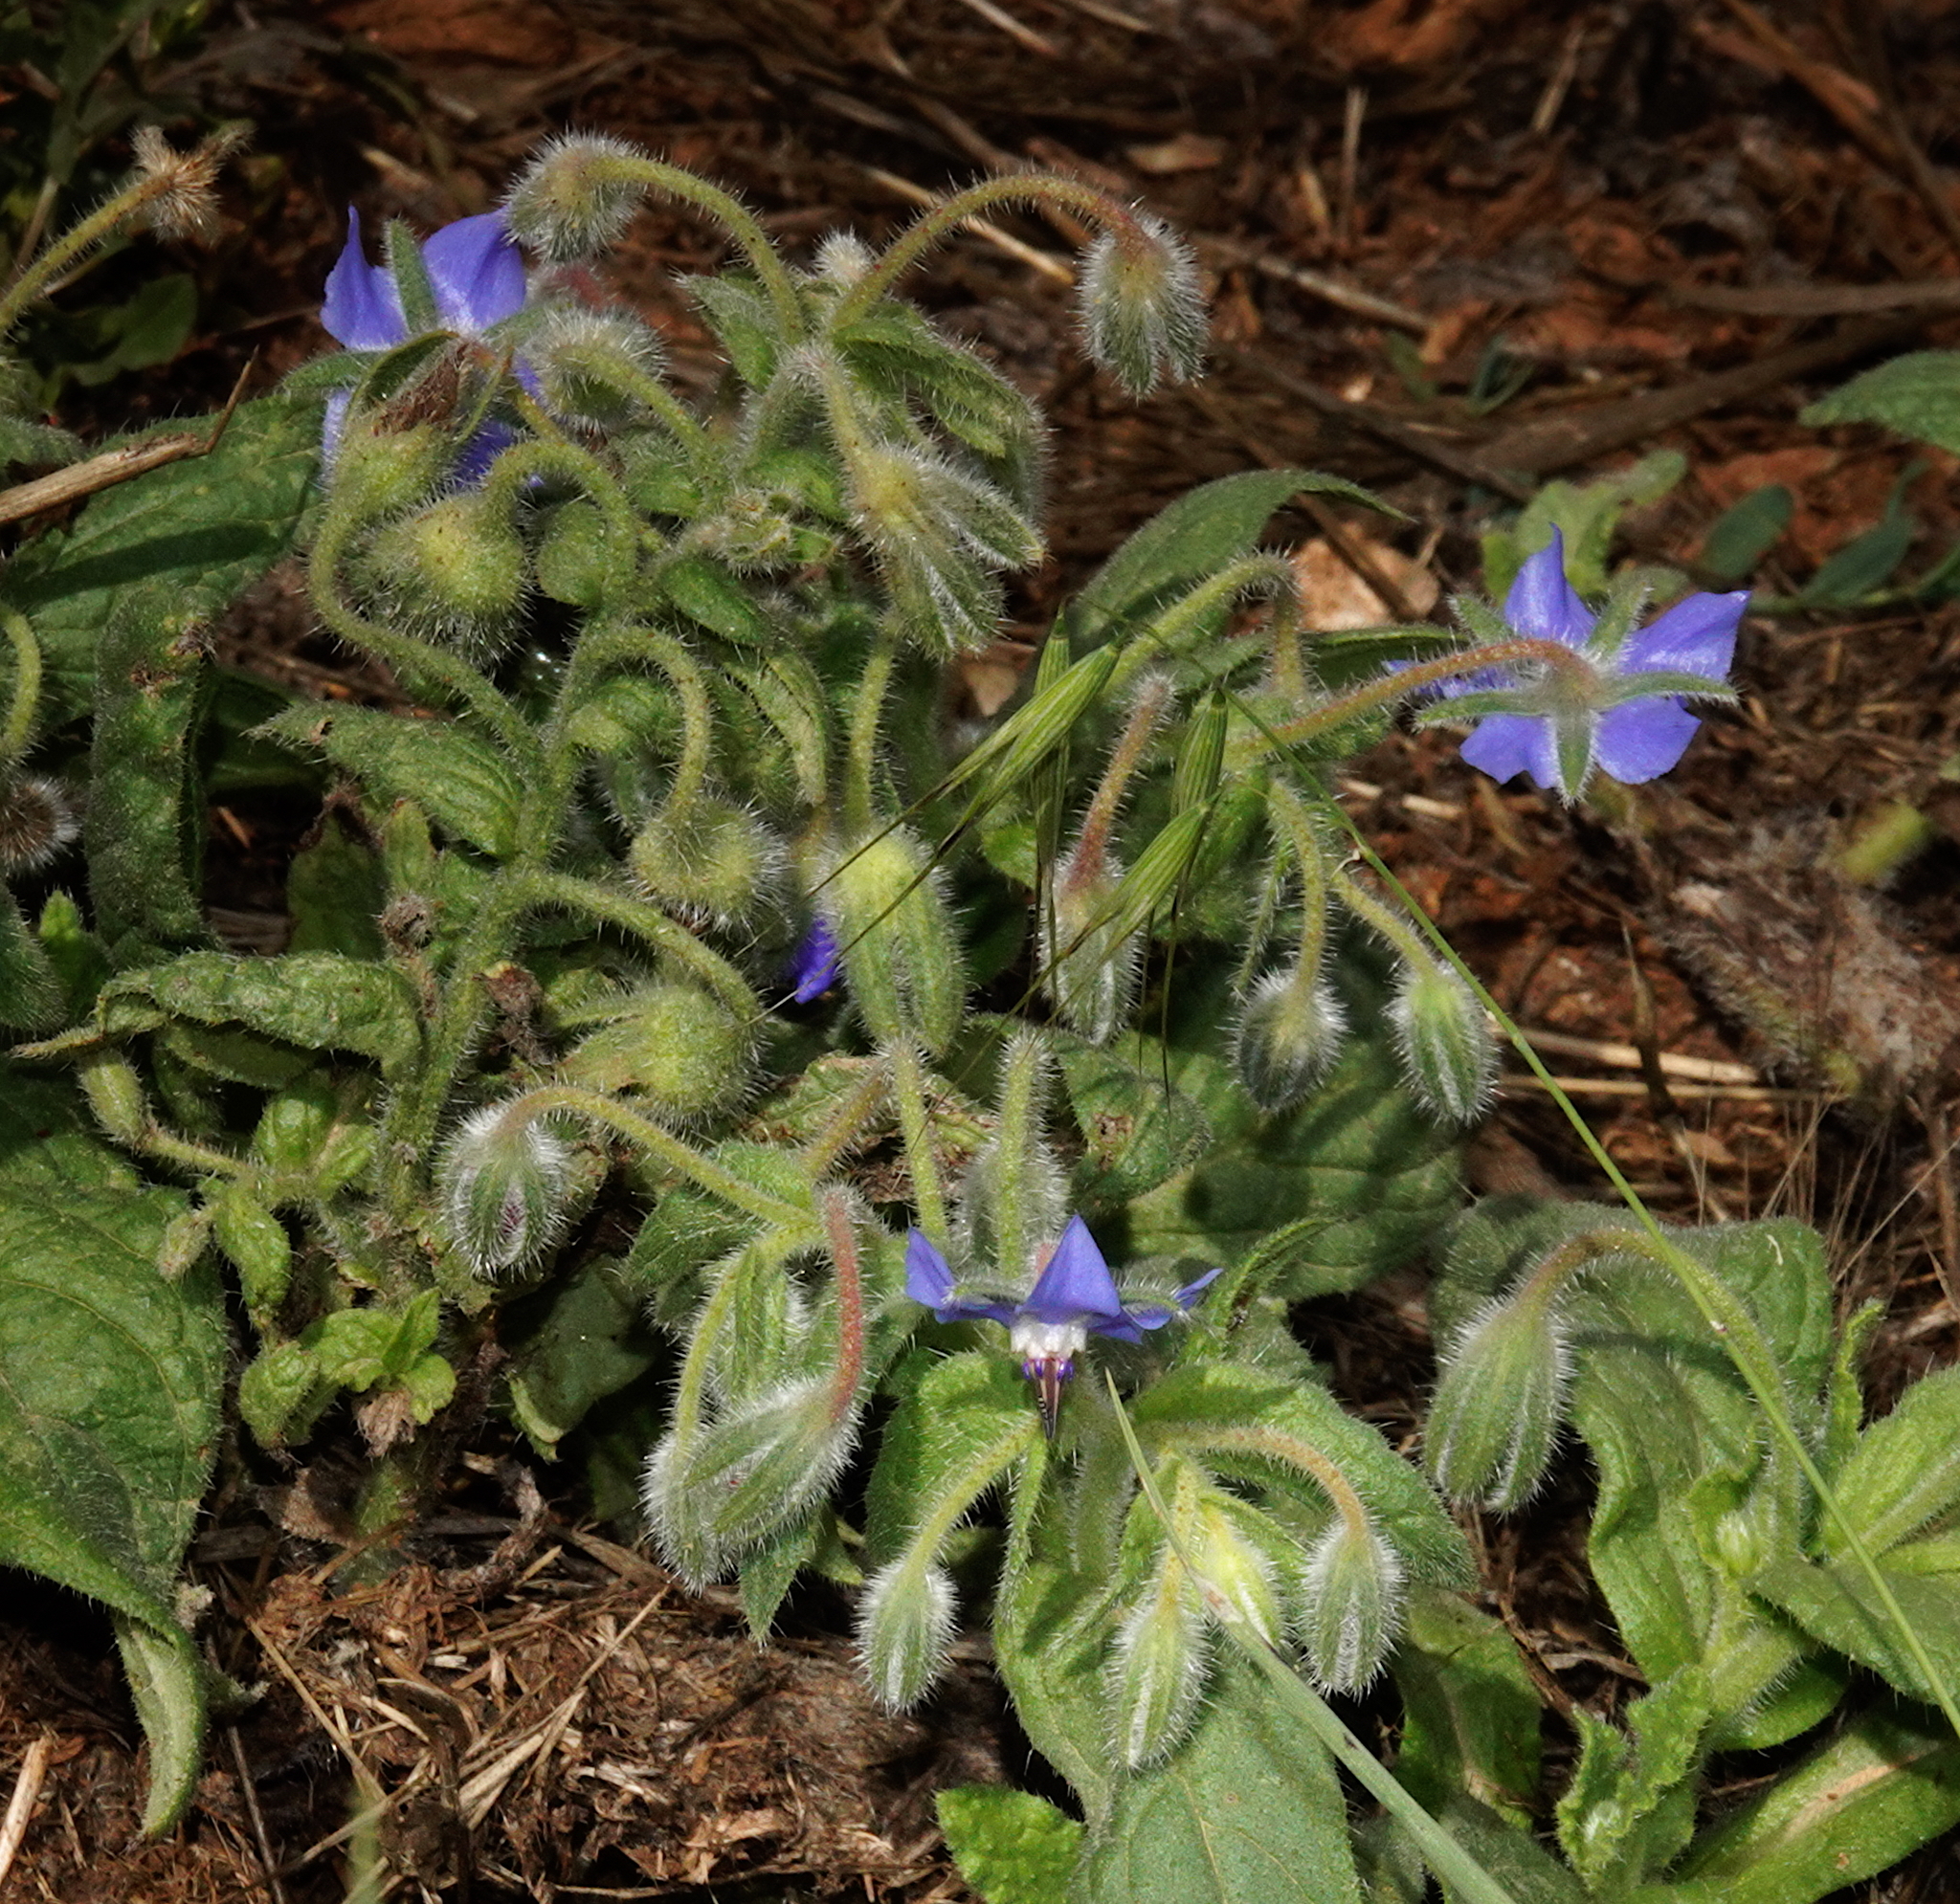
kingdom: Plantae
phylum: Tracheophyta
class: Magnoliopsida
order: Boraginales
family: Boraginaceae
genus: Borago
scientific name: Borago officinalis
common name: Borage
